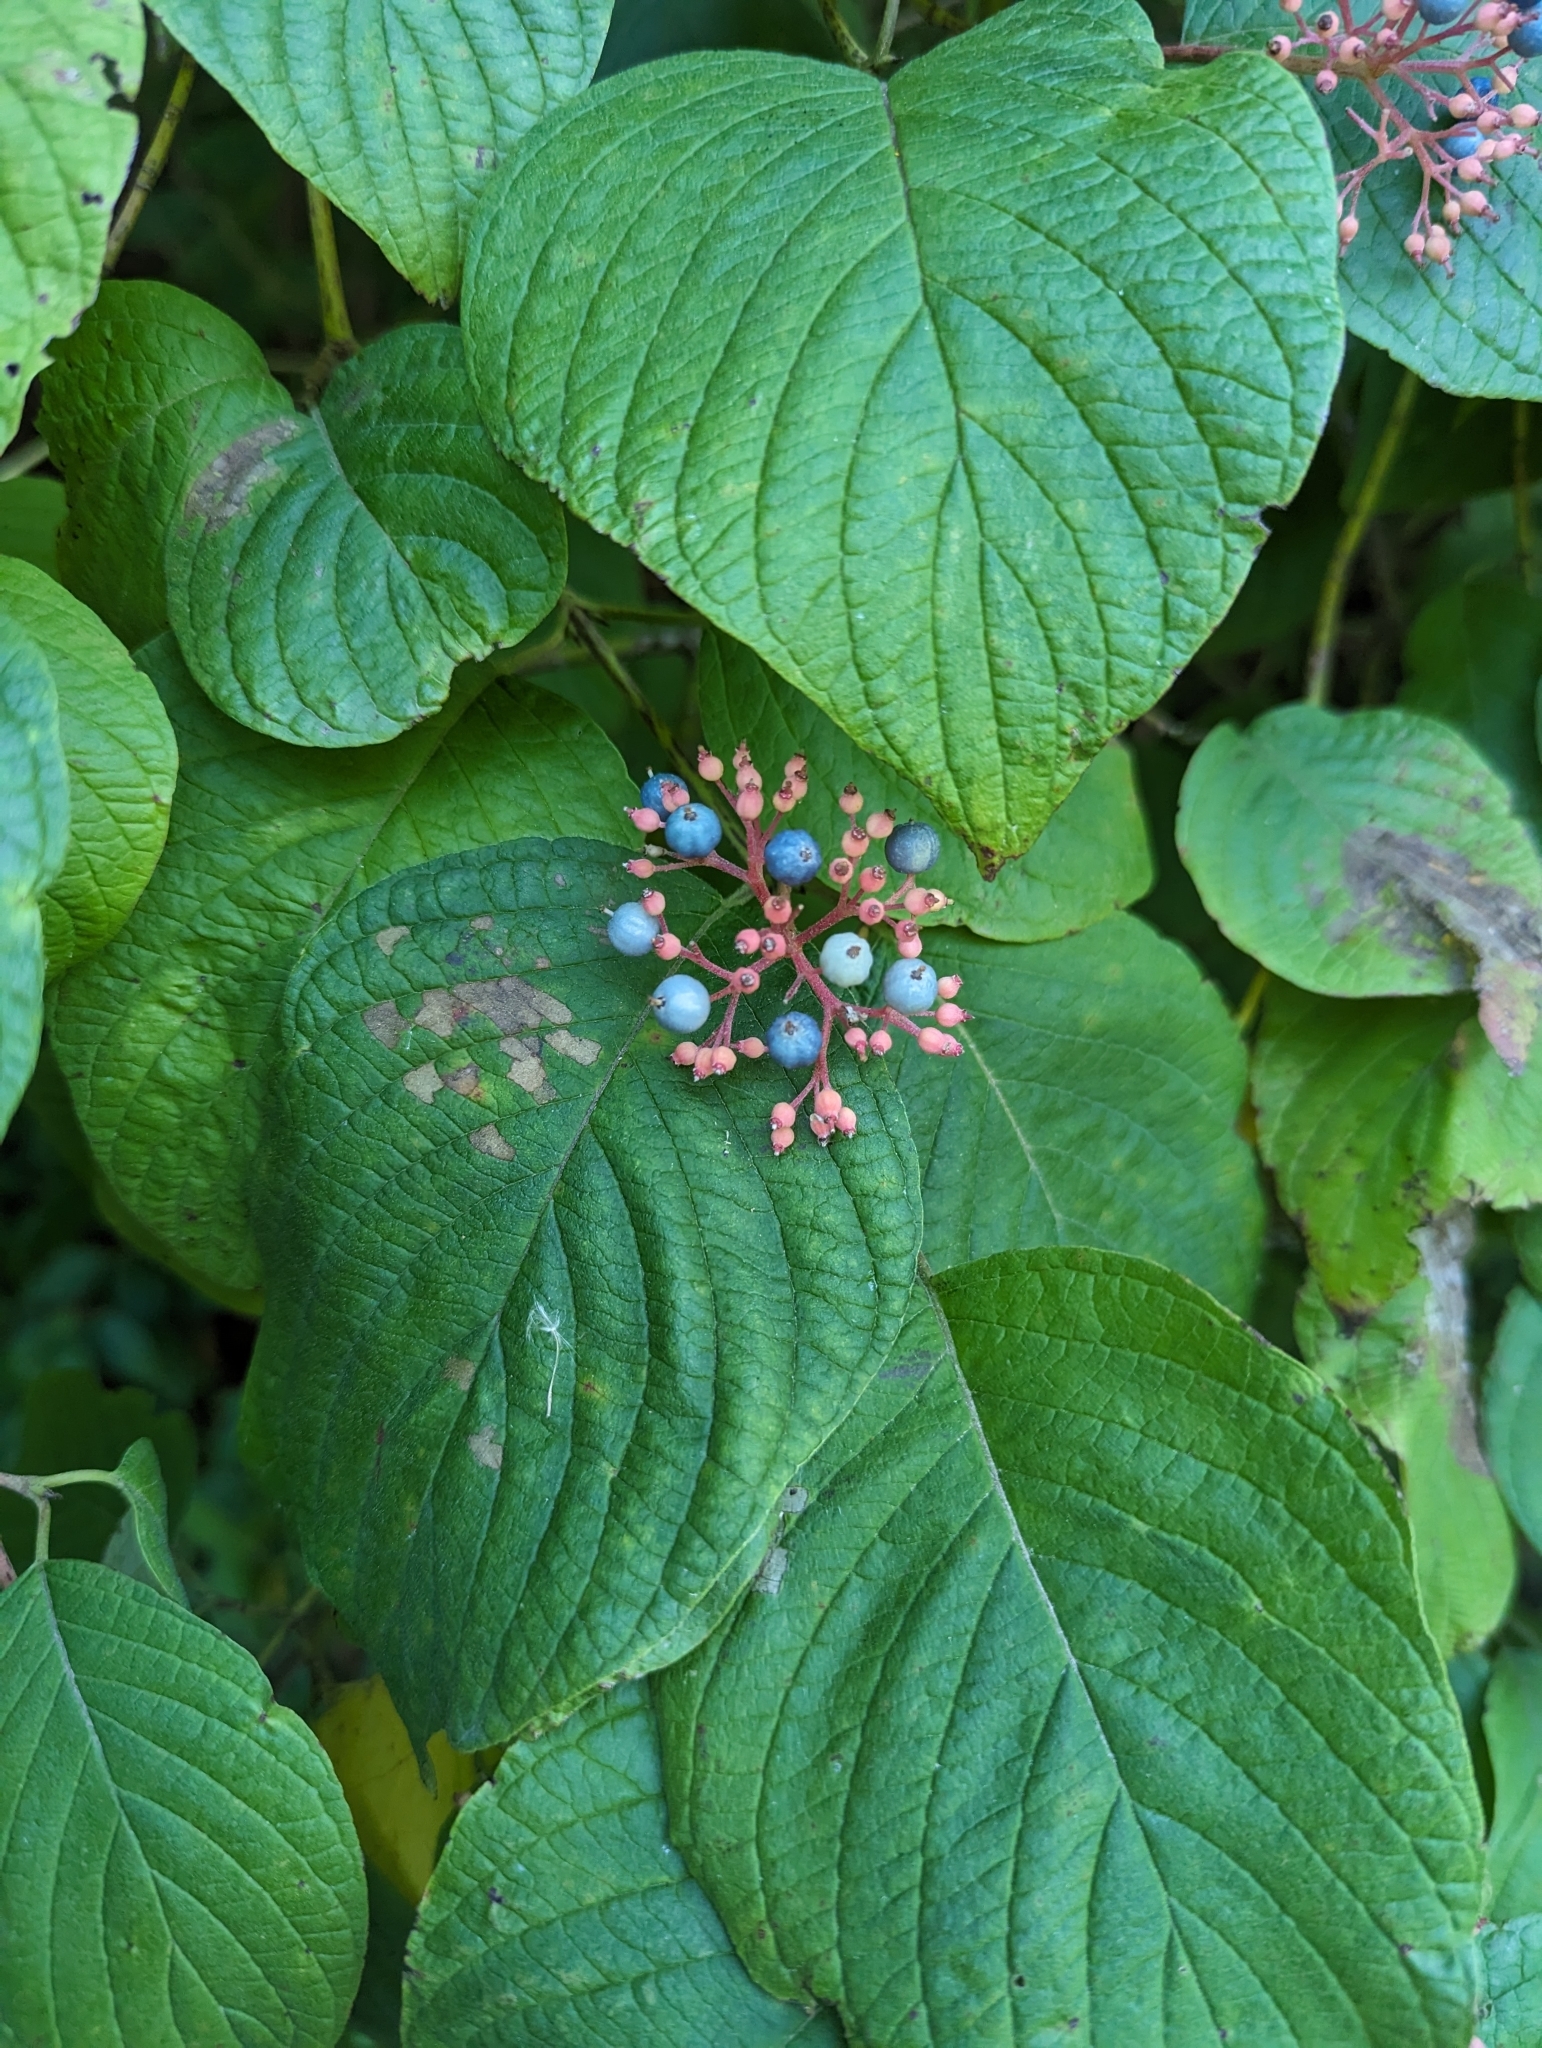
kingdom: Plantae
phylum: Tracheophyta
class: Magnoliopsida
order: Cornales
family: Cornaceae
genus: Cornus
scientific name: Cornus rugosa
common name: Round-leaf dogwood
